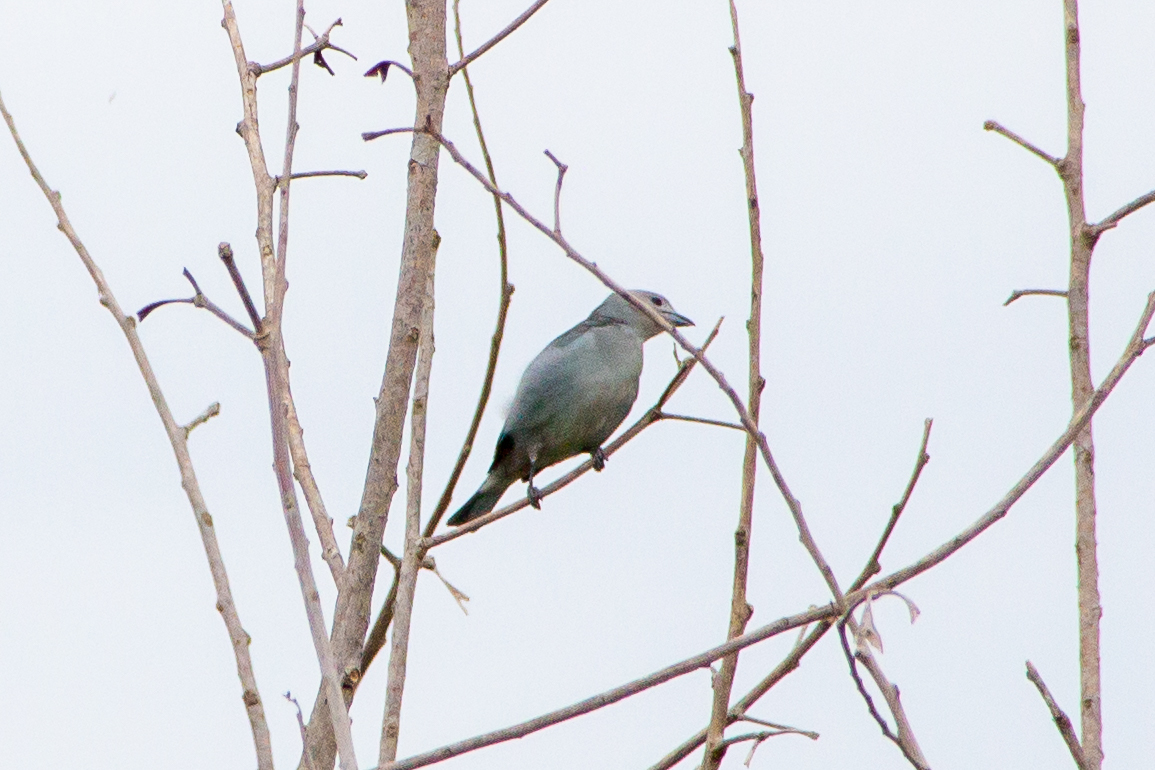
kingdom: Animalia
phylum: Chordata
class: Aves
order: Passeriformes
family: Thraupidae
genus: Thraupis
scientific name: Thraupis sayaca
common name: Sayaca tanager
